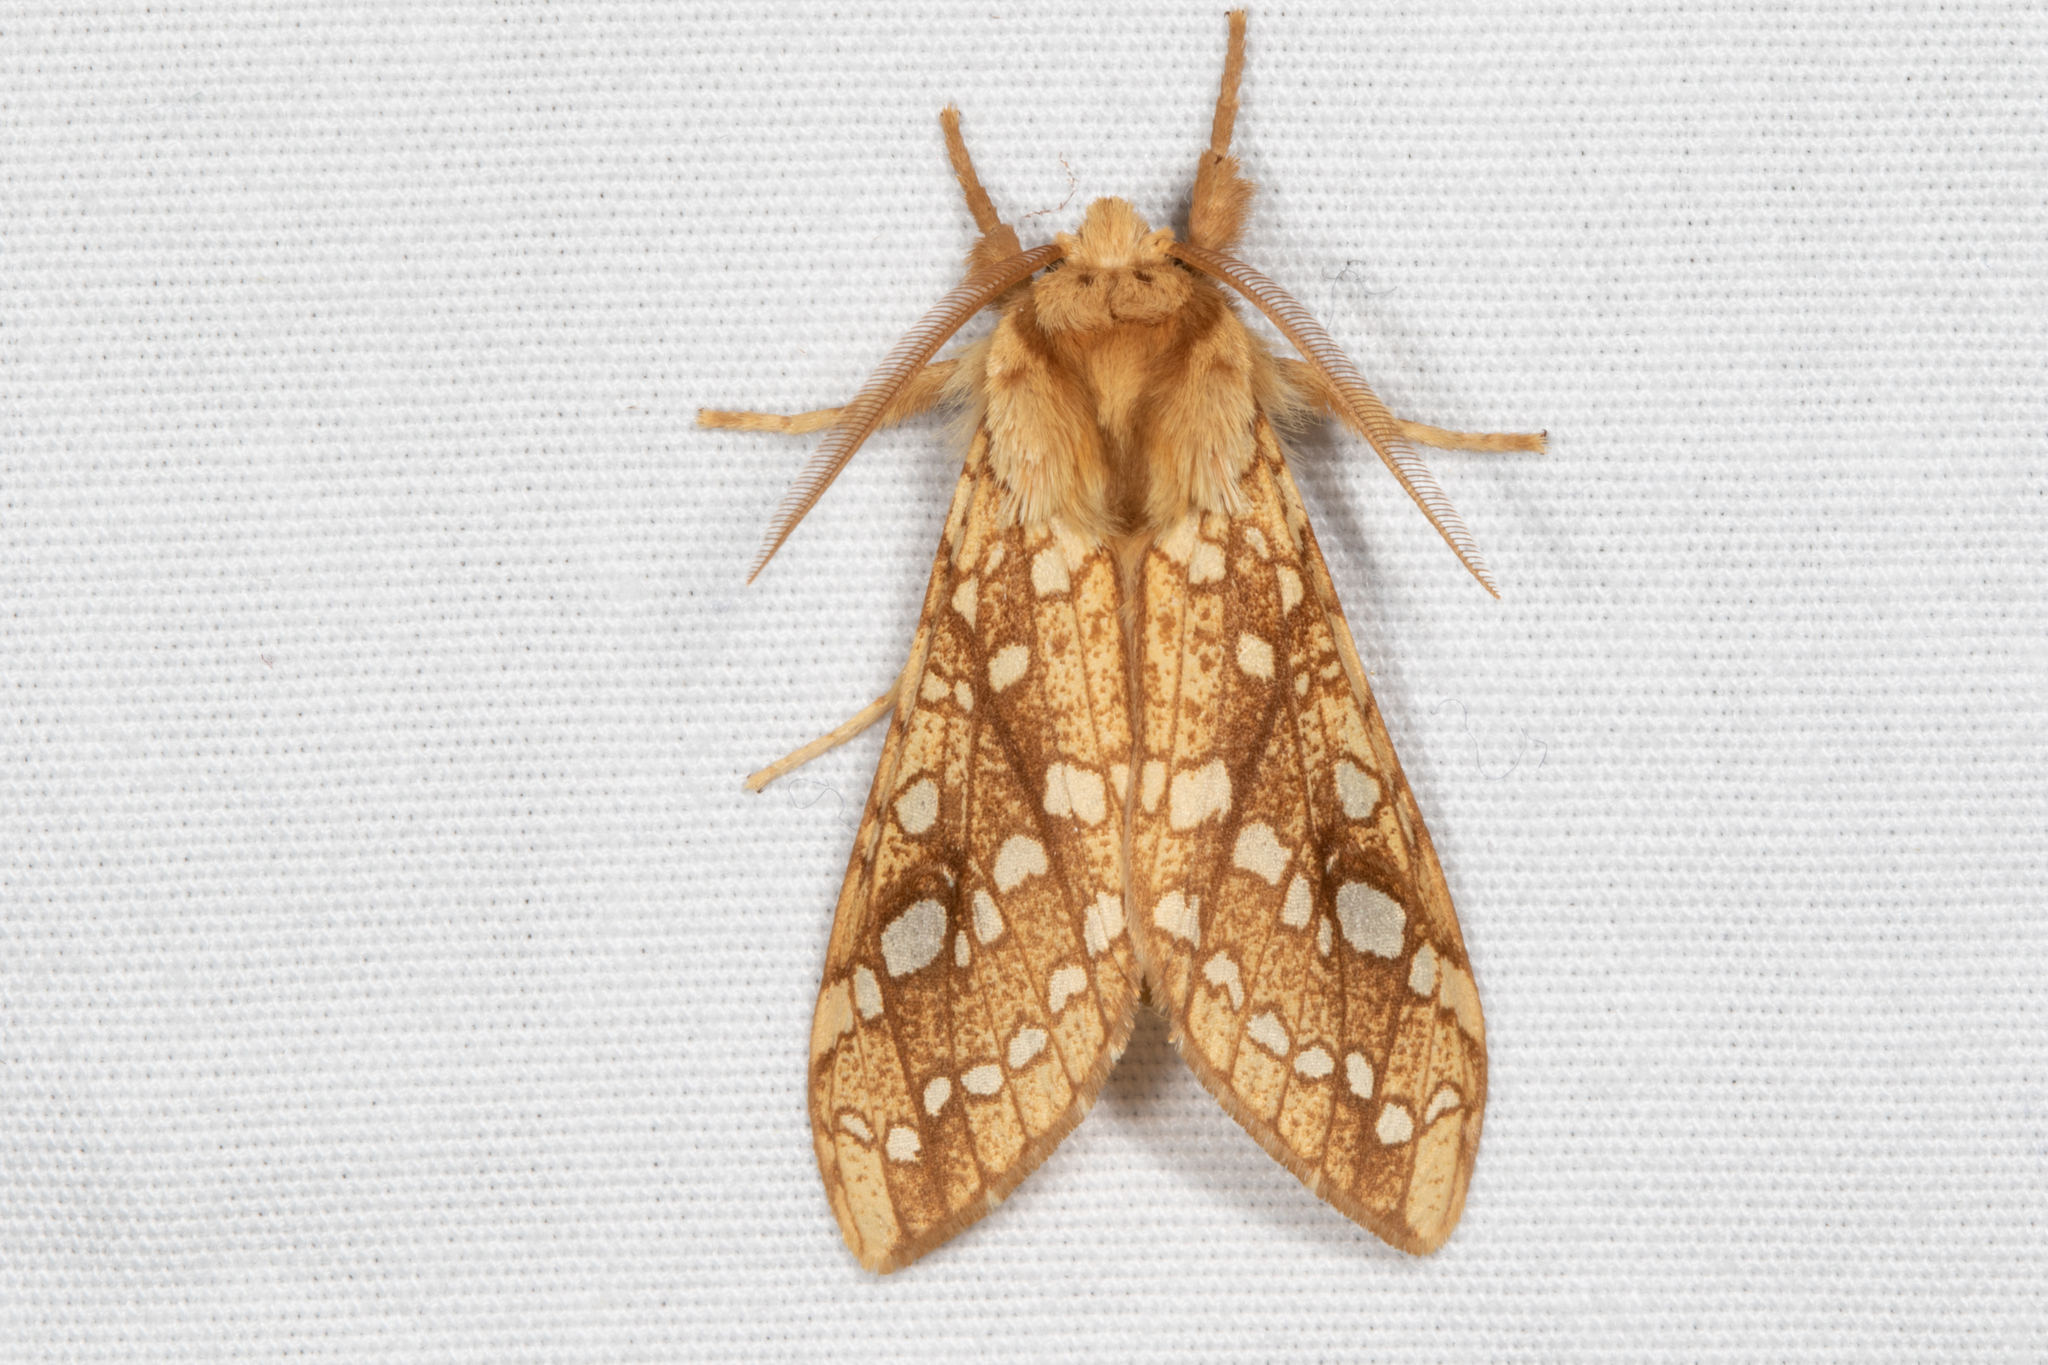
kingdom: Animalia
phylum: Arthropoda
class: Insecta
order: Lepidoptera
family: Erebidae
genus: Lophocampa
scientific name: Lophocampa caryae
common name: Hickory tussock moth
